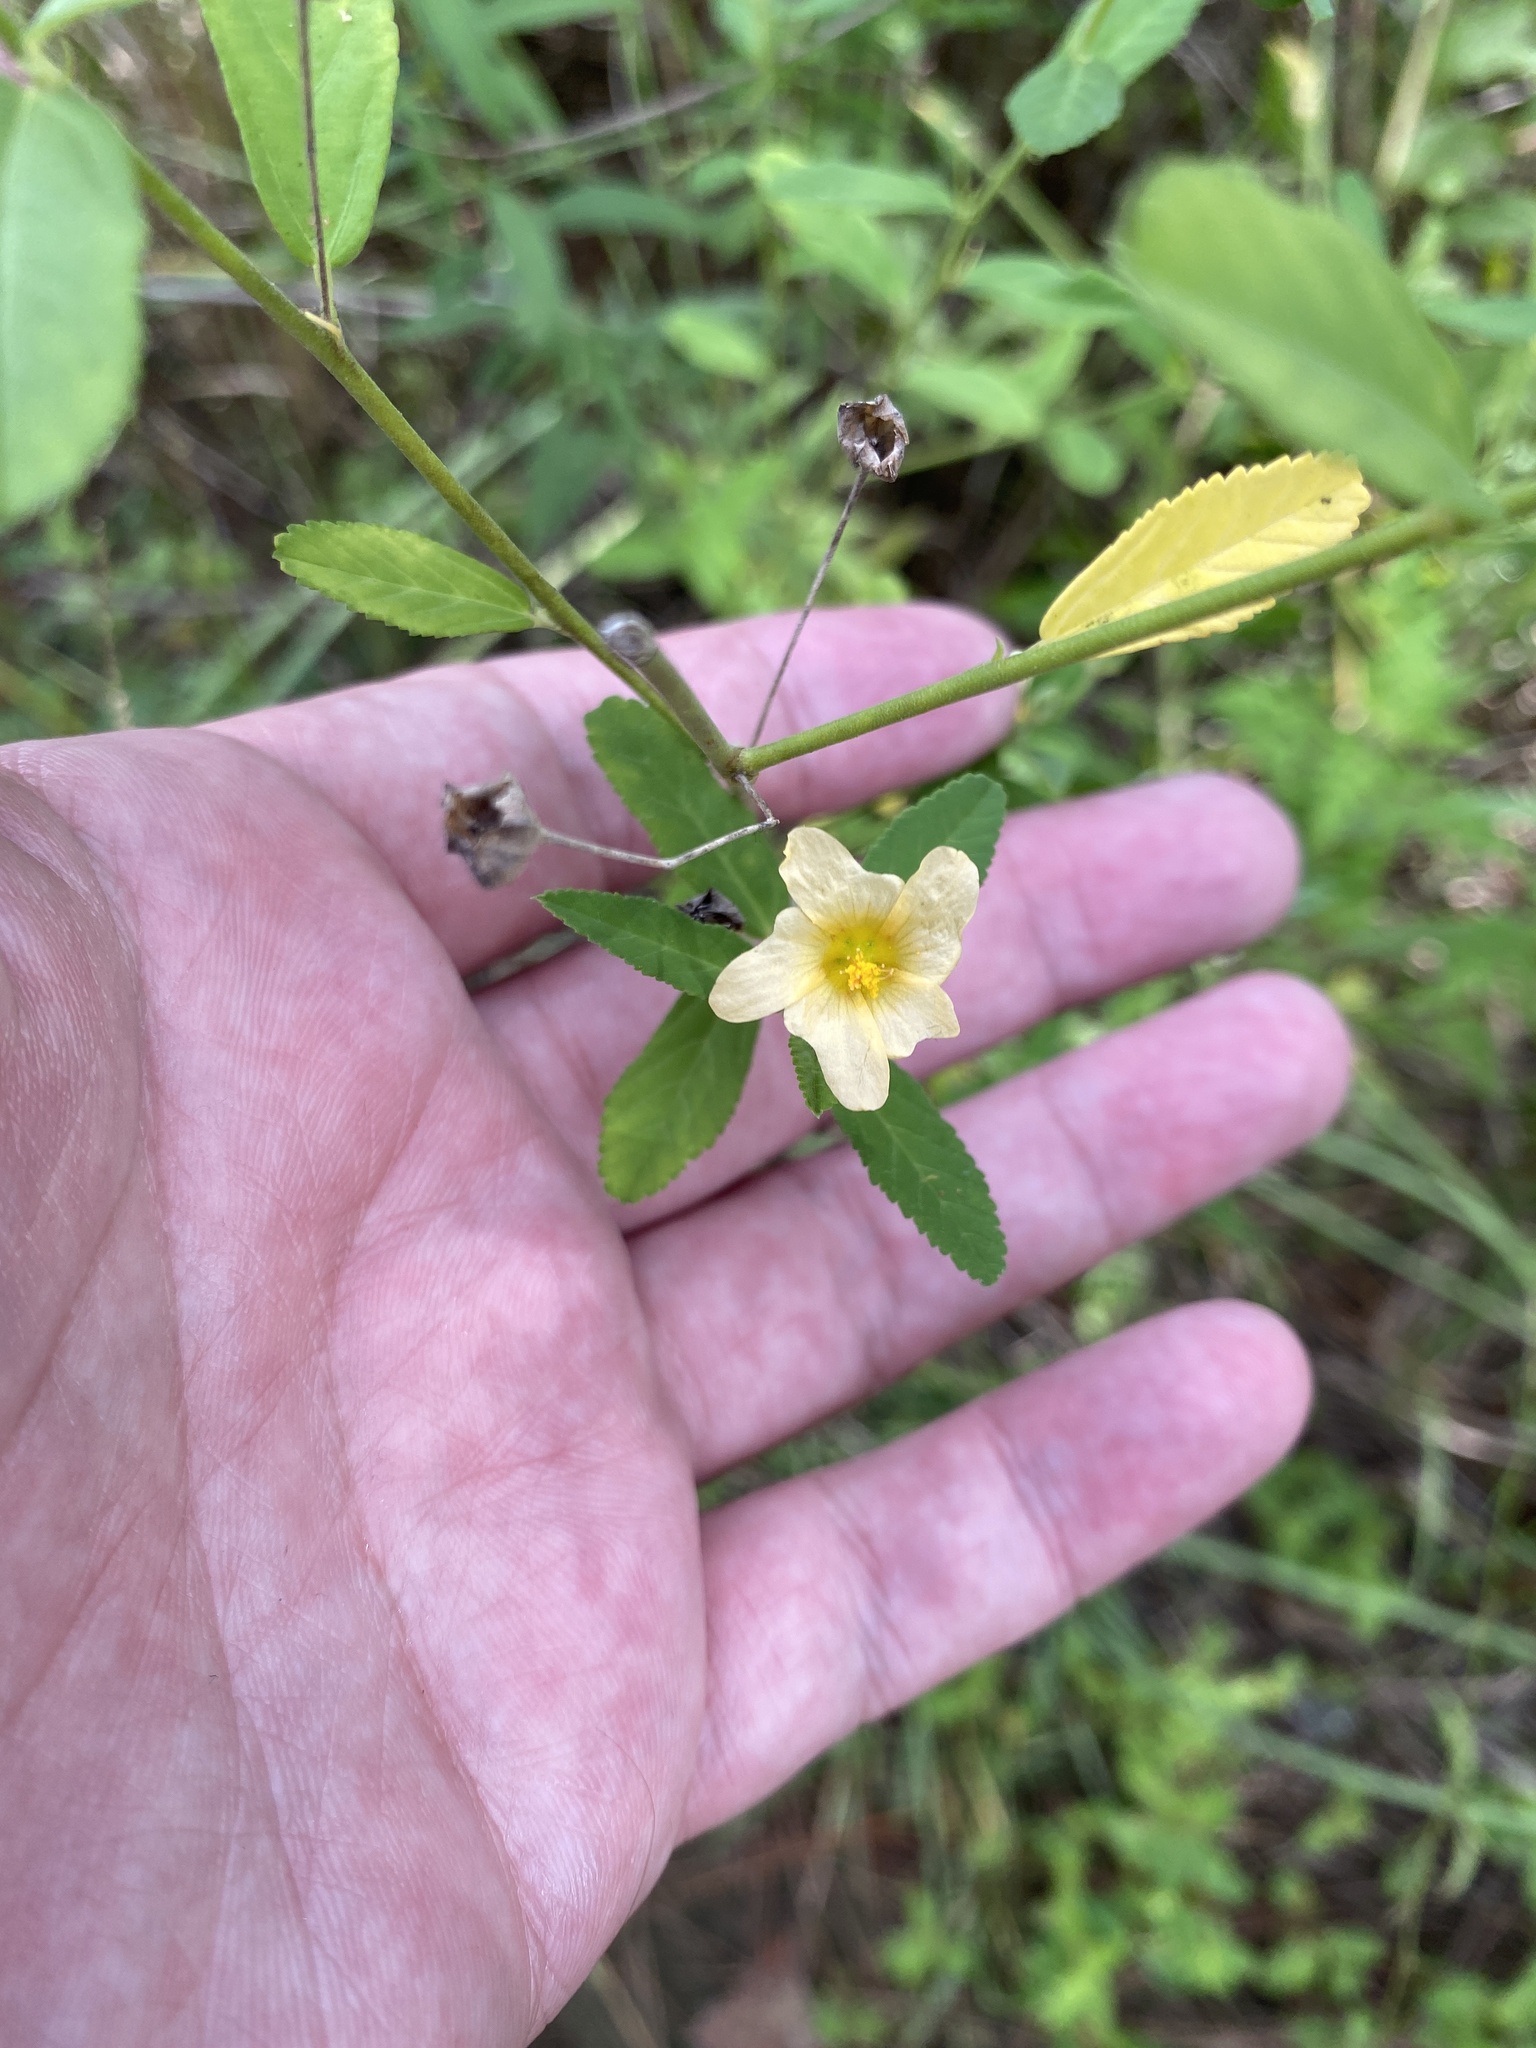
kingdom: Plantae
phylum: Tracheophyta
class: Magnoliopsida
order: Malvales
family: Malvaceae
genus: Sida
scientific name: Sida rhombifolia
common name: Queensland-hemp
